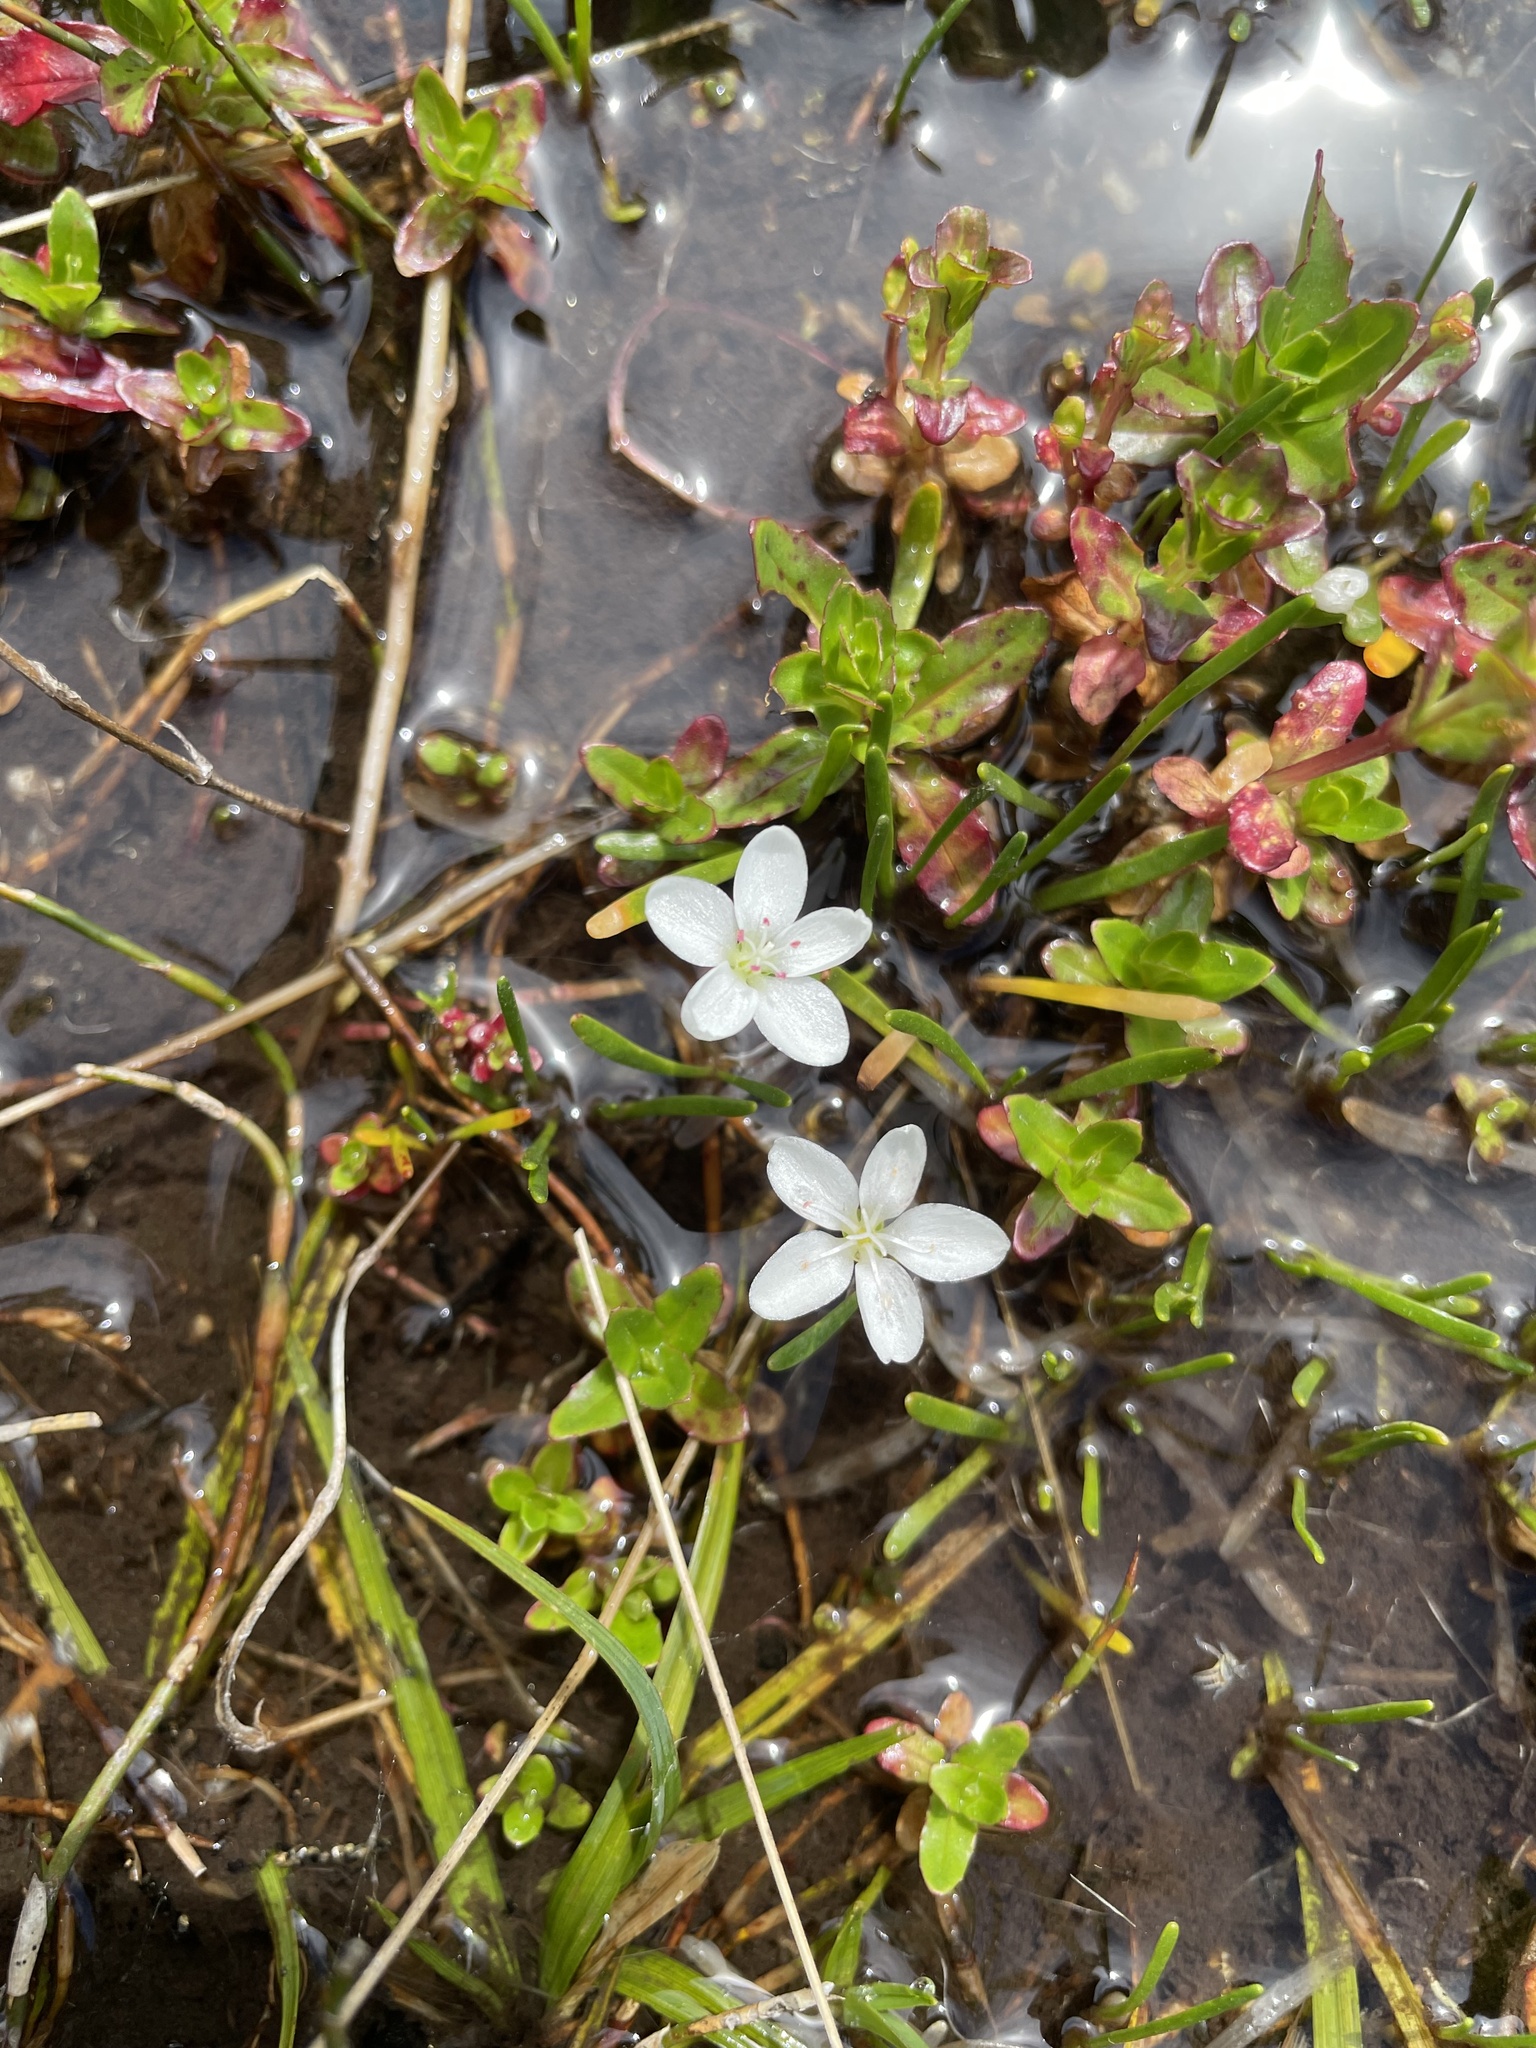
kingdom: Plantae
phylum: Tracheophyta
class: Magnoliopsida
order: Caryophyllales
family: Montiaceae
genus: Montia
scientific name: Montia australasica
